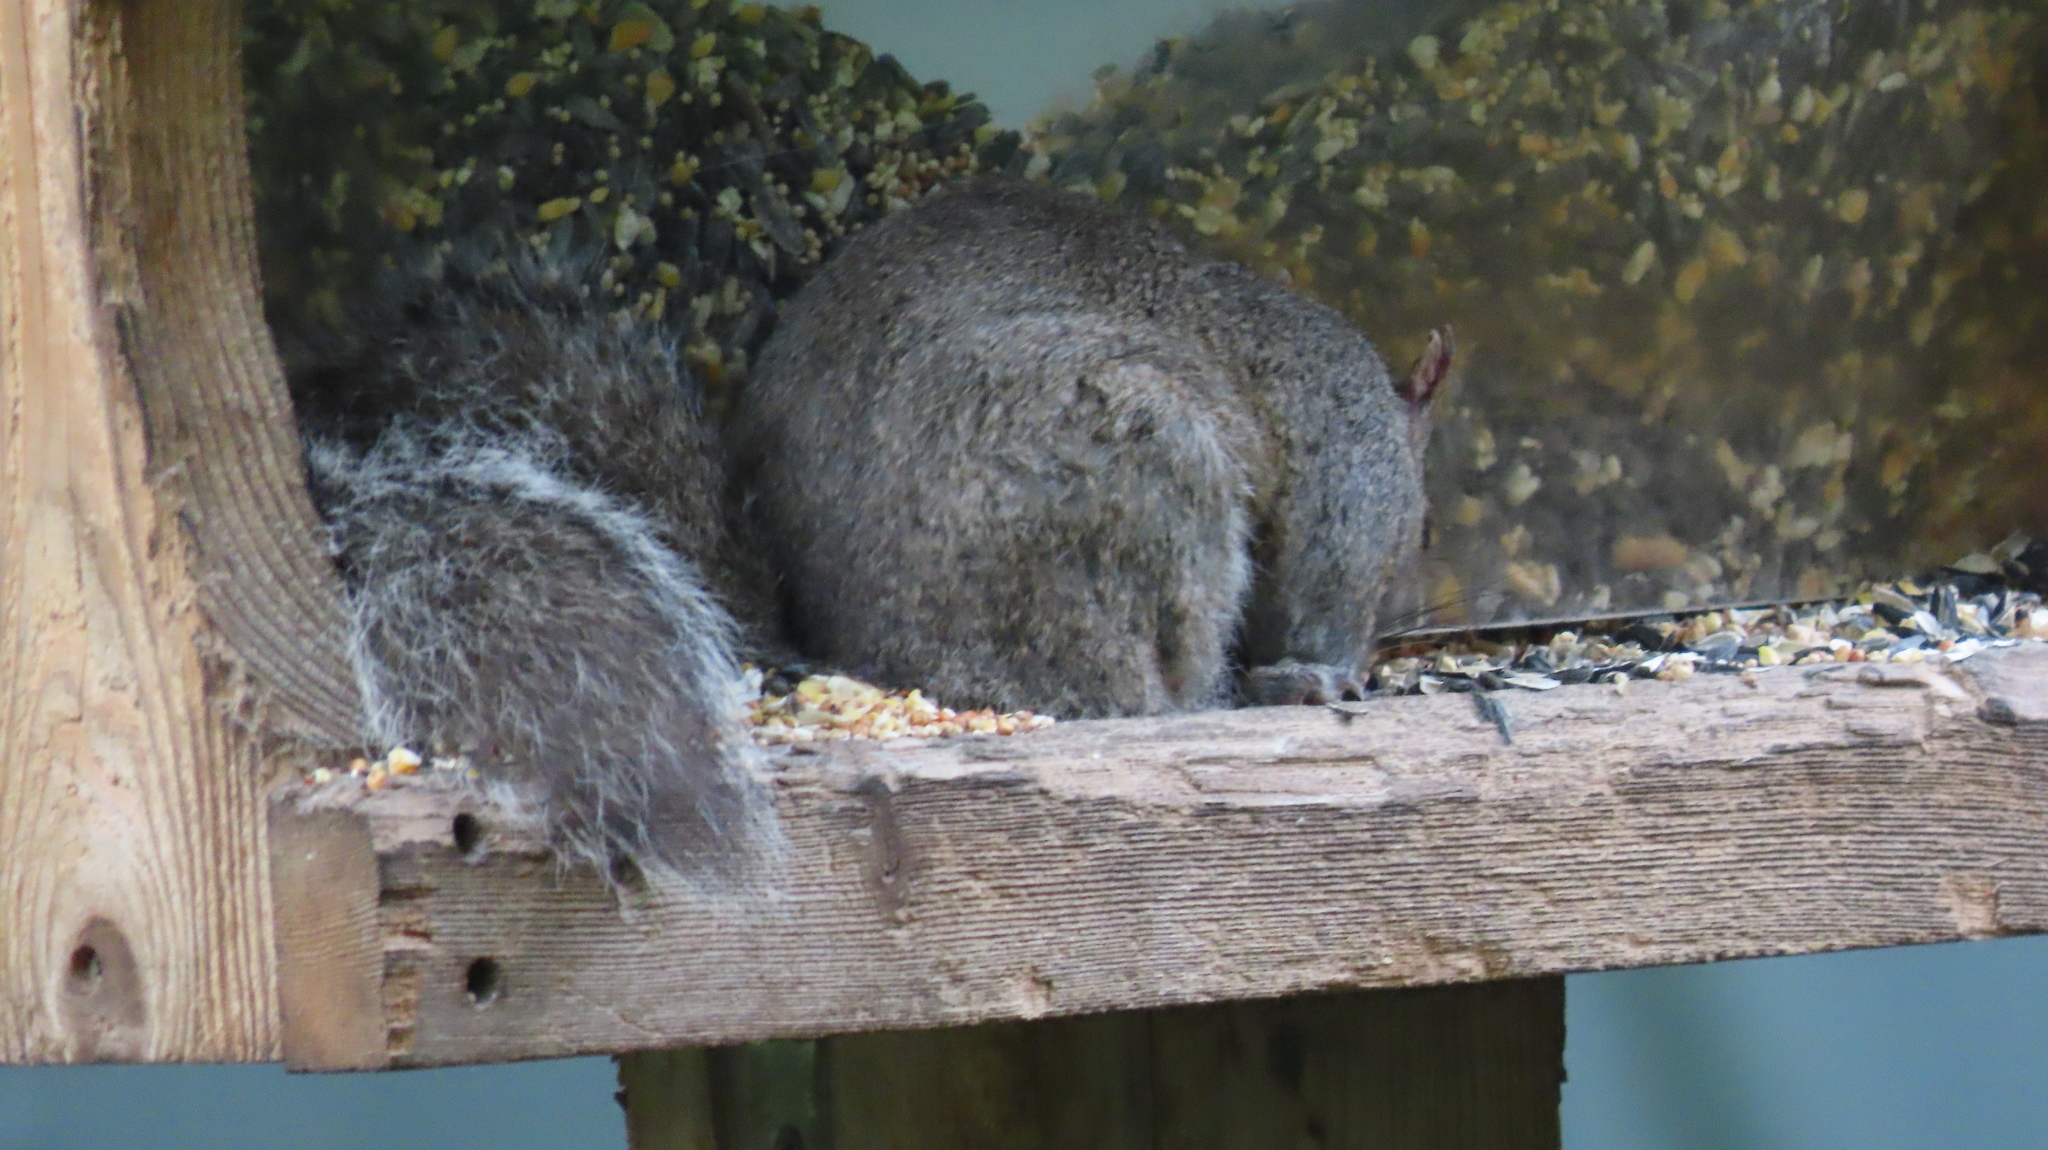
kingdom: Animalia
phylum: Chordata
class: Mammalia
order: Rodentia
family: Sciuridae
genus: Sciurus
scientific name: Sciurus carolinensis
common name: Eastern gray squirrel
